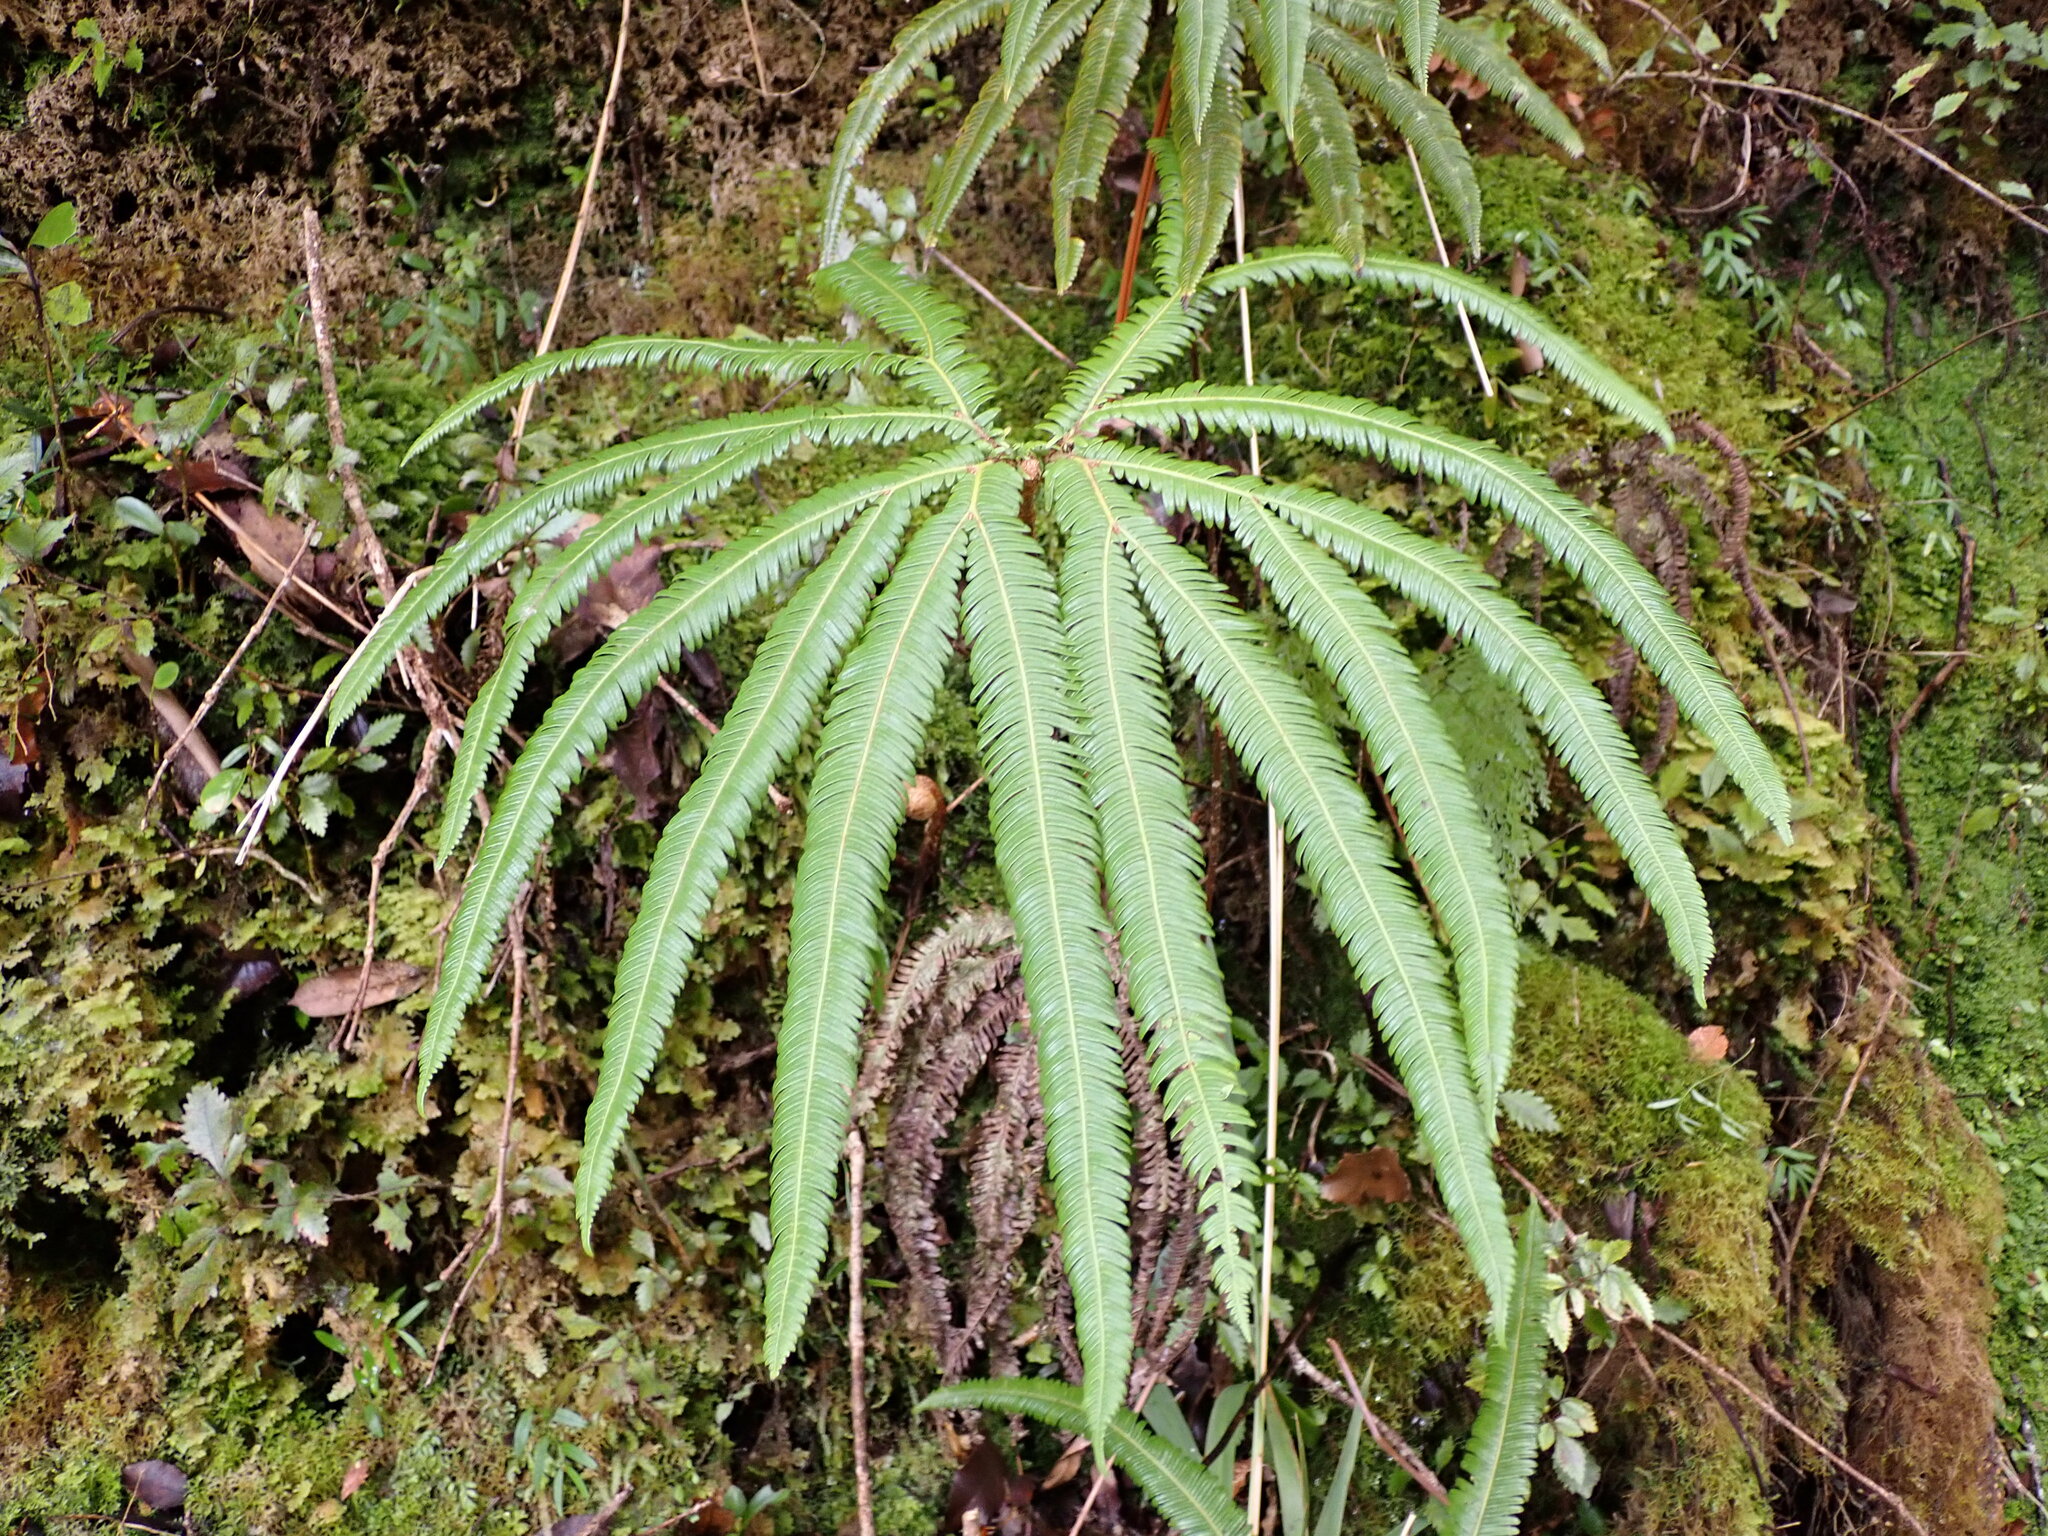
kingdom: Plantae
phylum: Tracheophyta
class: Polypodiopsida
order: Gleicheniales
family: Gleicheniaceae
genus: Sticherus
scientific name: Sticherus cunninghamii
